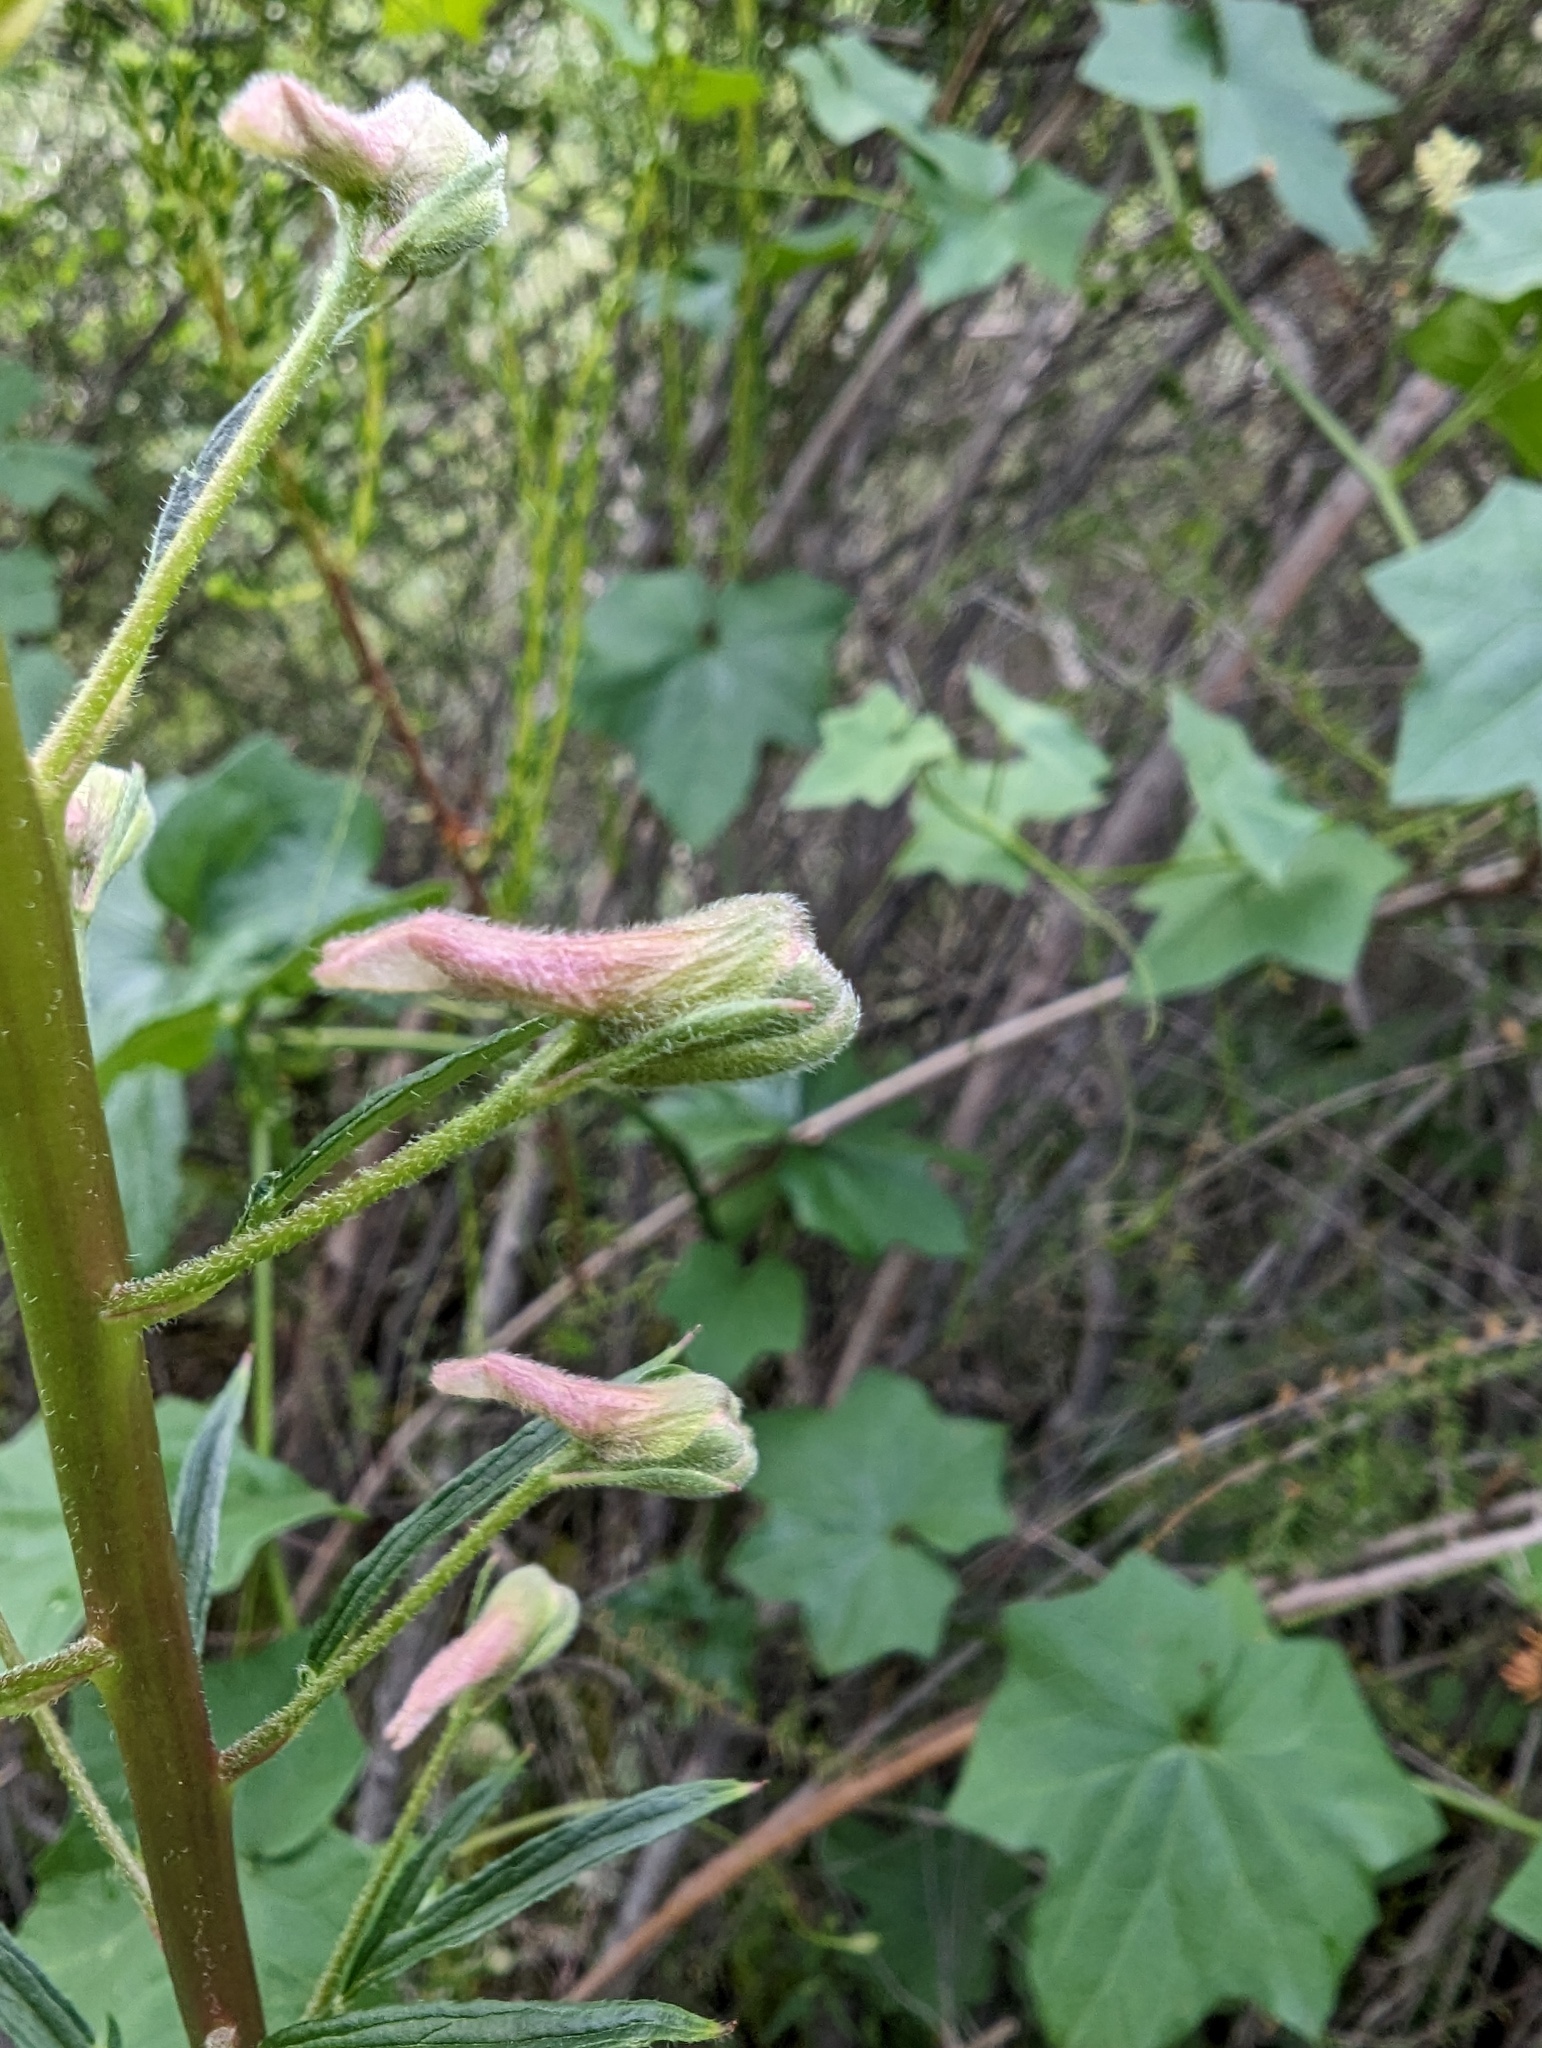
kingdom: Plantae
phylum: Tracheophyta
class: Magnoliopsida
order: Ranunculales
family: Ranunculaceae
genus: Delphinium
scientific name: Delphinium californicum
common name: California larkspur
